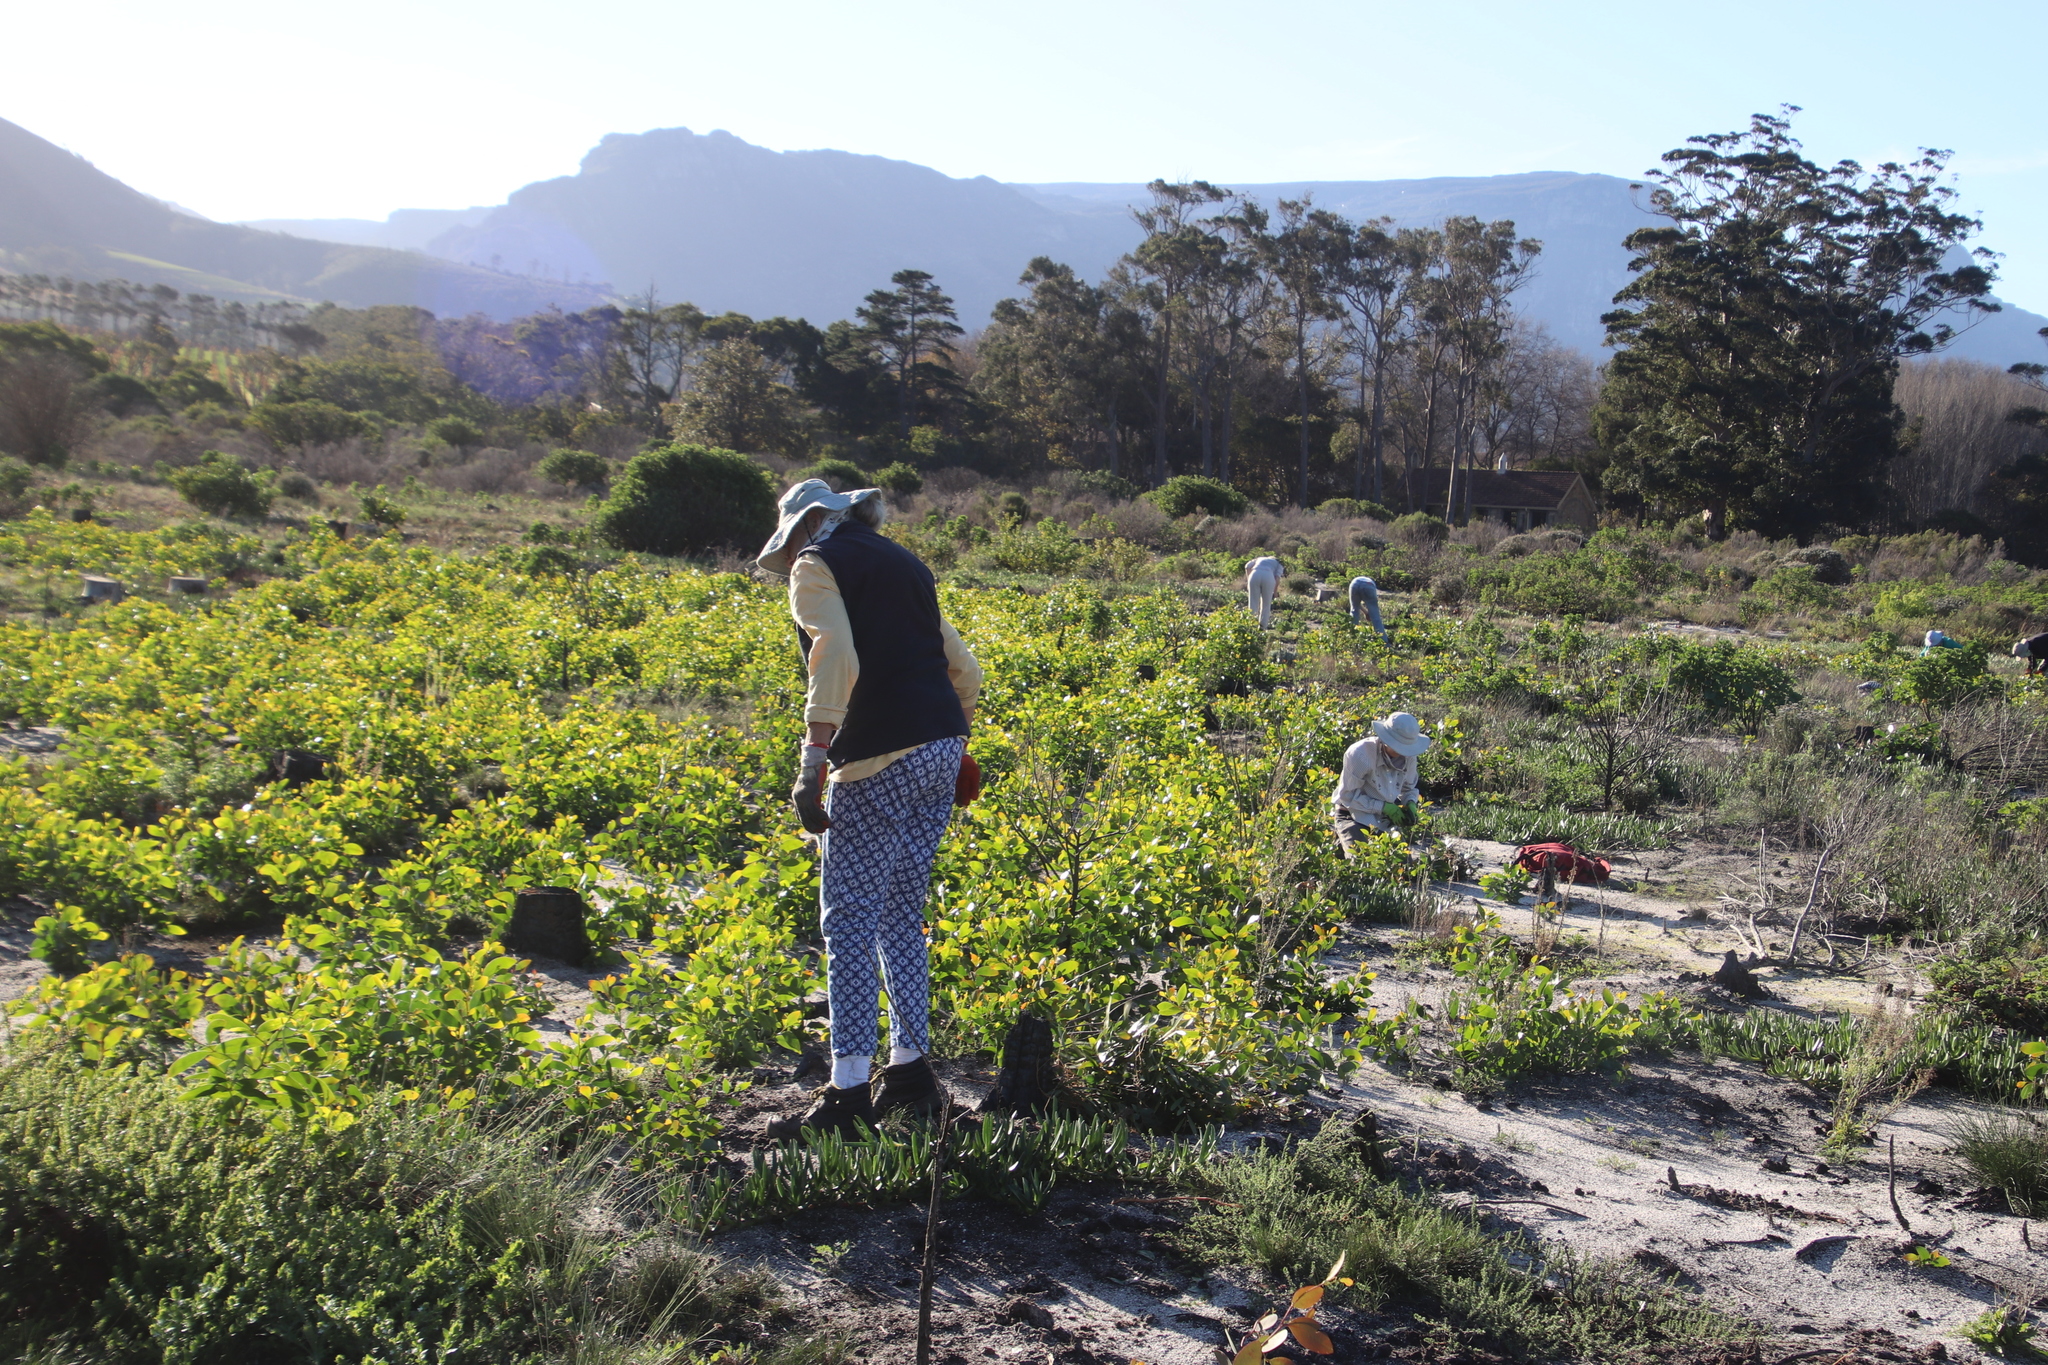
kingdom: Plantae
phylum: Tracheophyta
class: Magnoliopsida
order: Fabales
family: Fabaceae
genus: Acacia
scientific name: Acacia pycnantha
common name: Golden wattle
